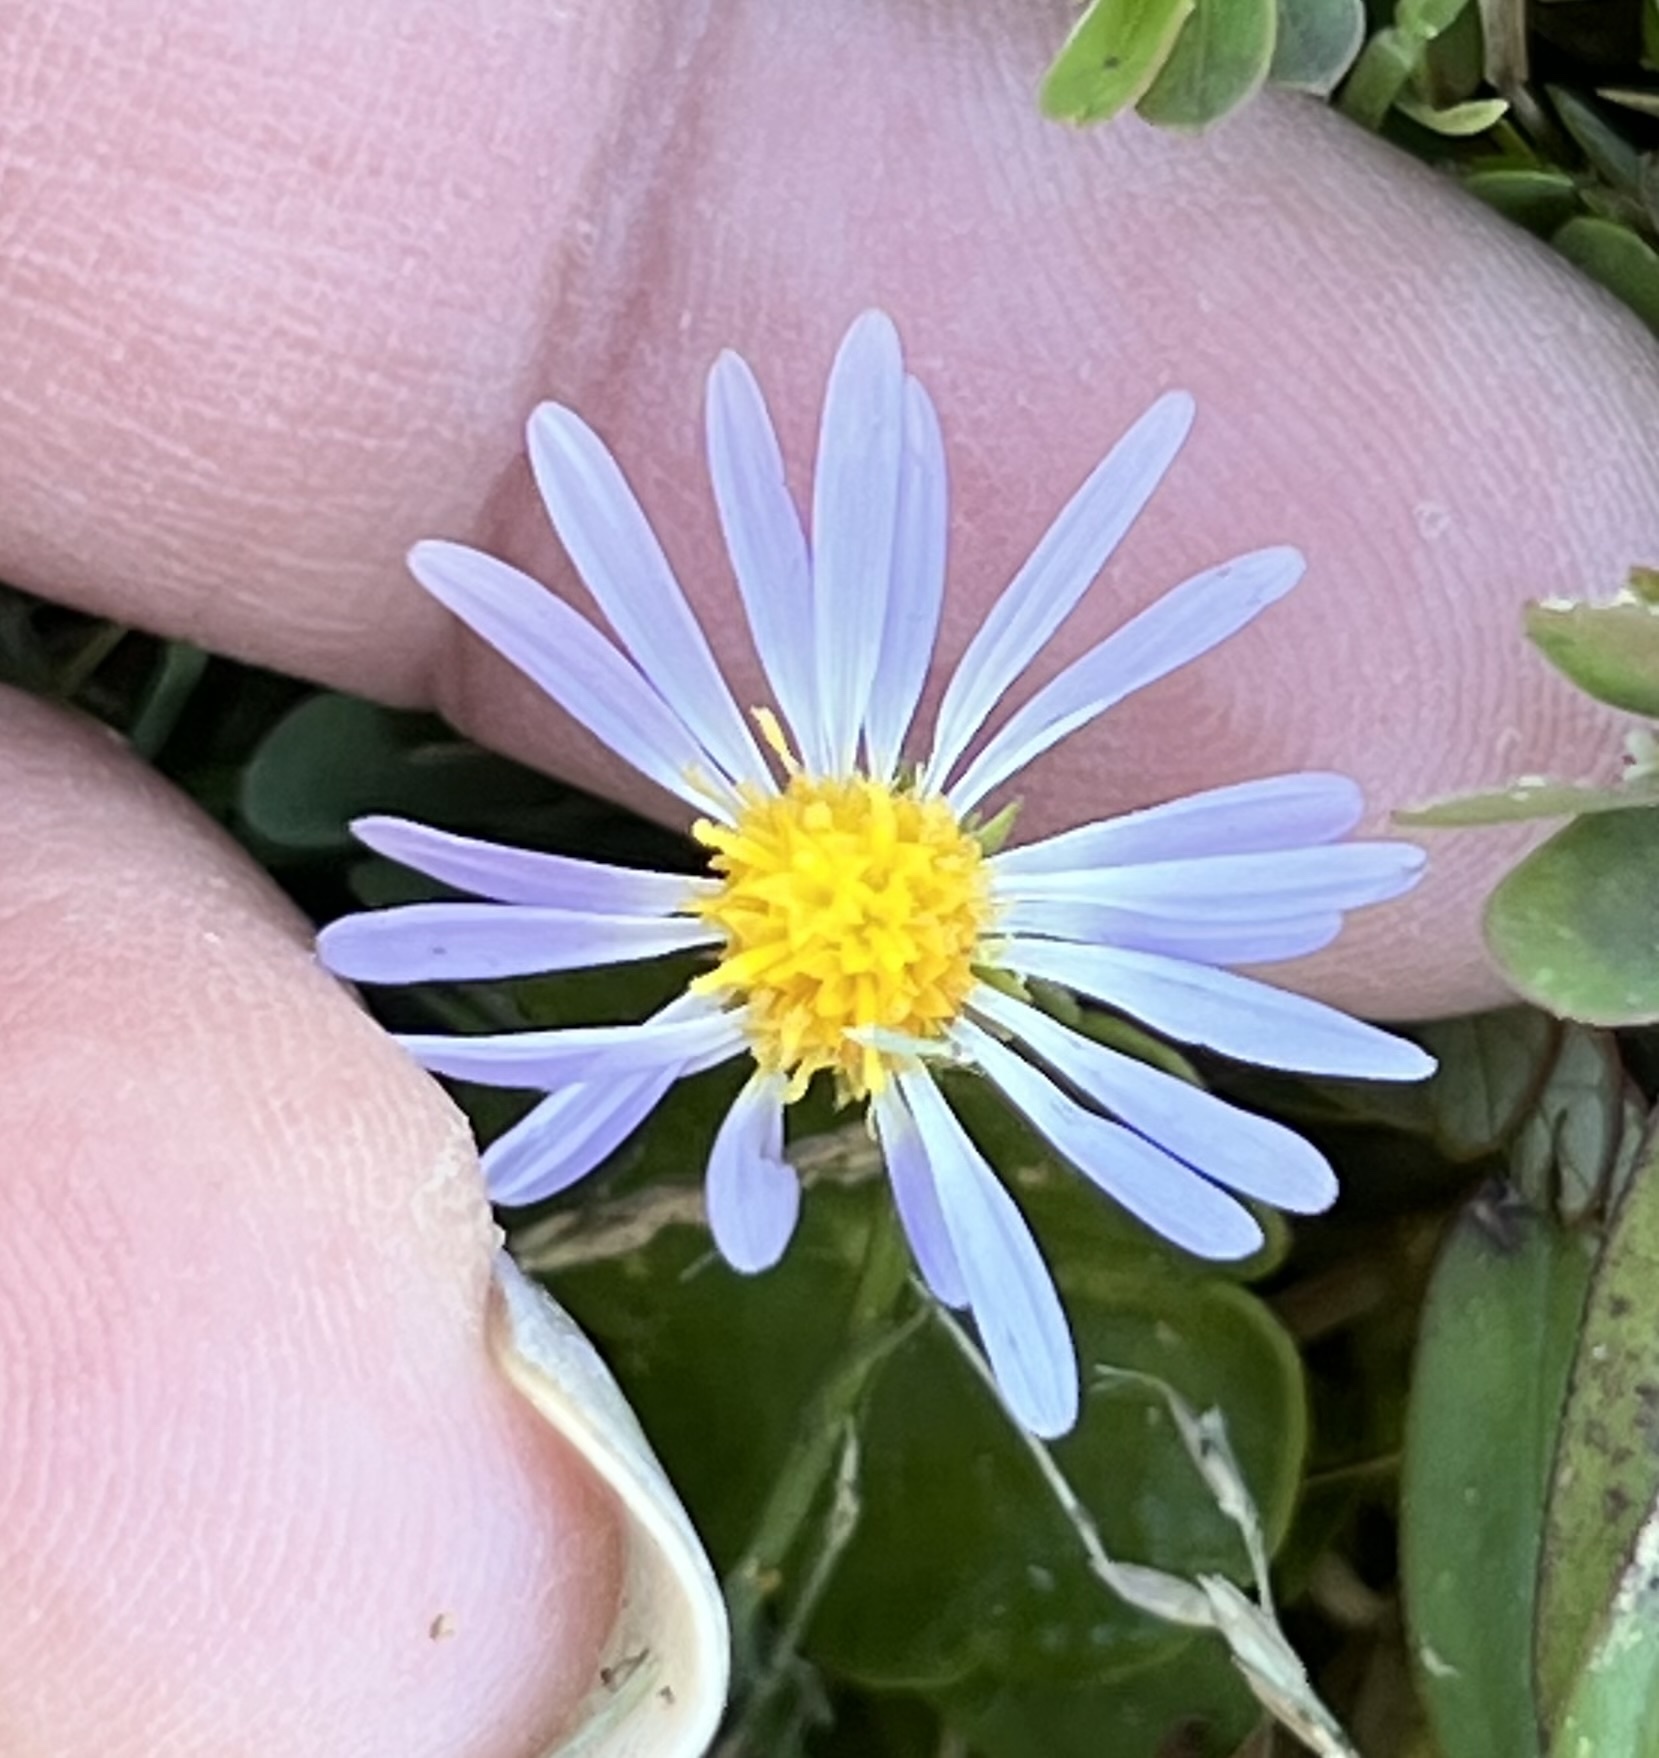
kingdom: Plantae
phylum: Tracheophyta
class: Magnoliopsida
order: Asterales
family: Asteraceae
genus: Symphyotrichum
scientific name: Symphyotrichum divaricatum
